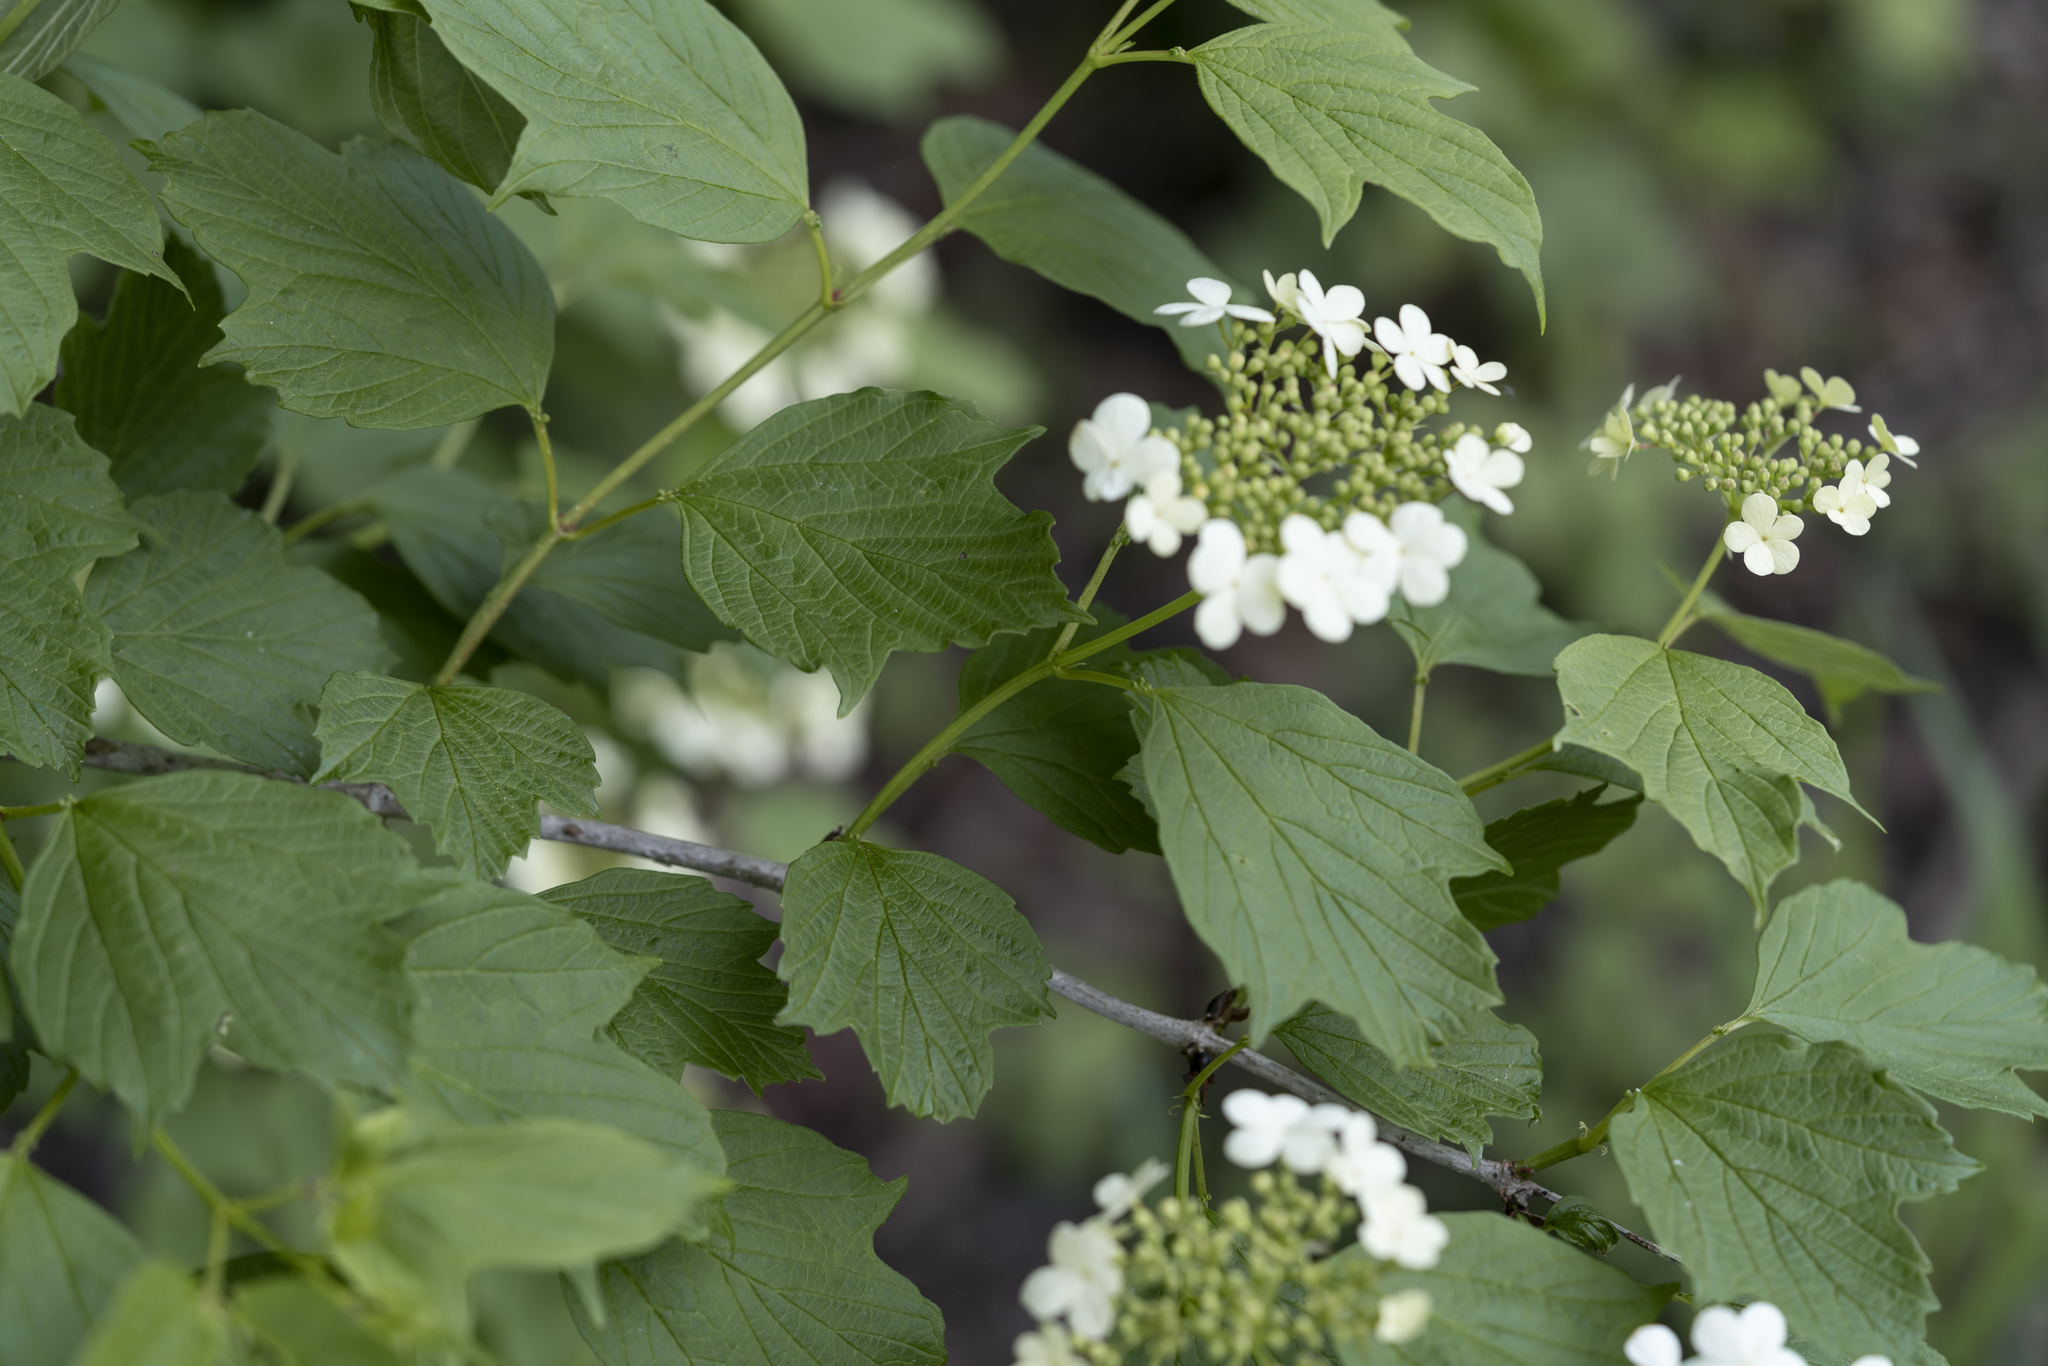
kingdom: Plantae
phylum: Tracheophyta
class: Magnoliopsida
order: Dipsacales
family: Viburnaceae
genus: Viburnum
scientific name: Viburnum opulus
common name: Guelder-rose
